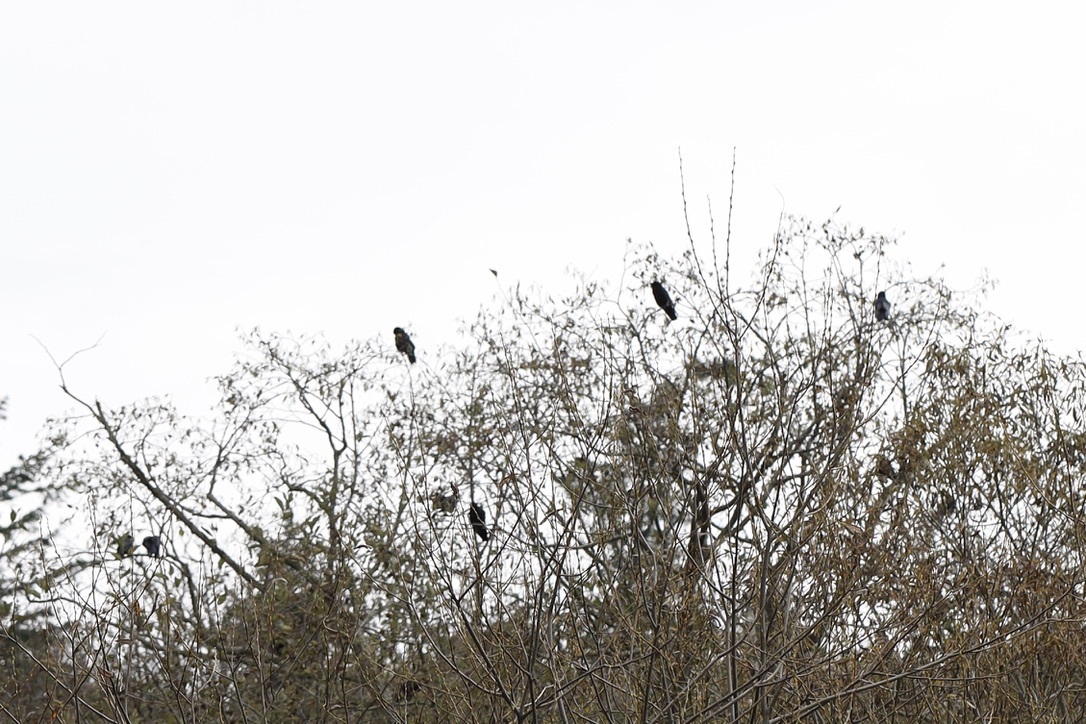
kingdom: Animalia
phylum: Chordata
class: Aves
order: Passeriformes
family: Corvidae
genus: Corvus
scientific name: Corvus brachyrhynchos
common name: American crow
